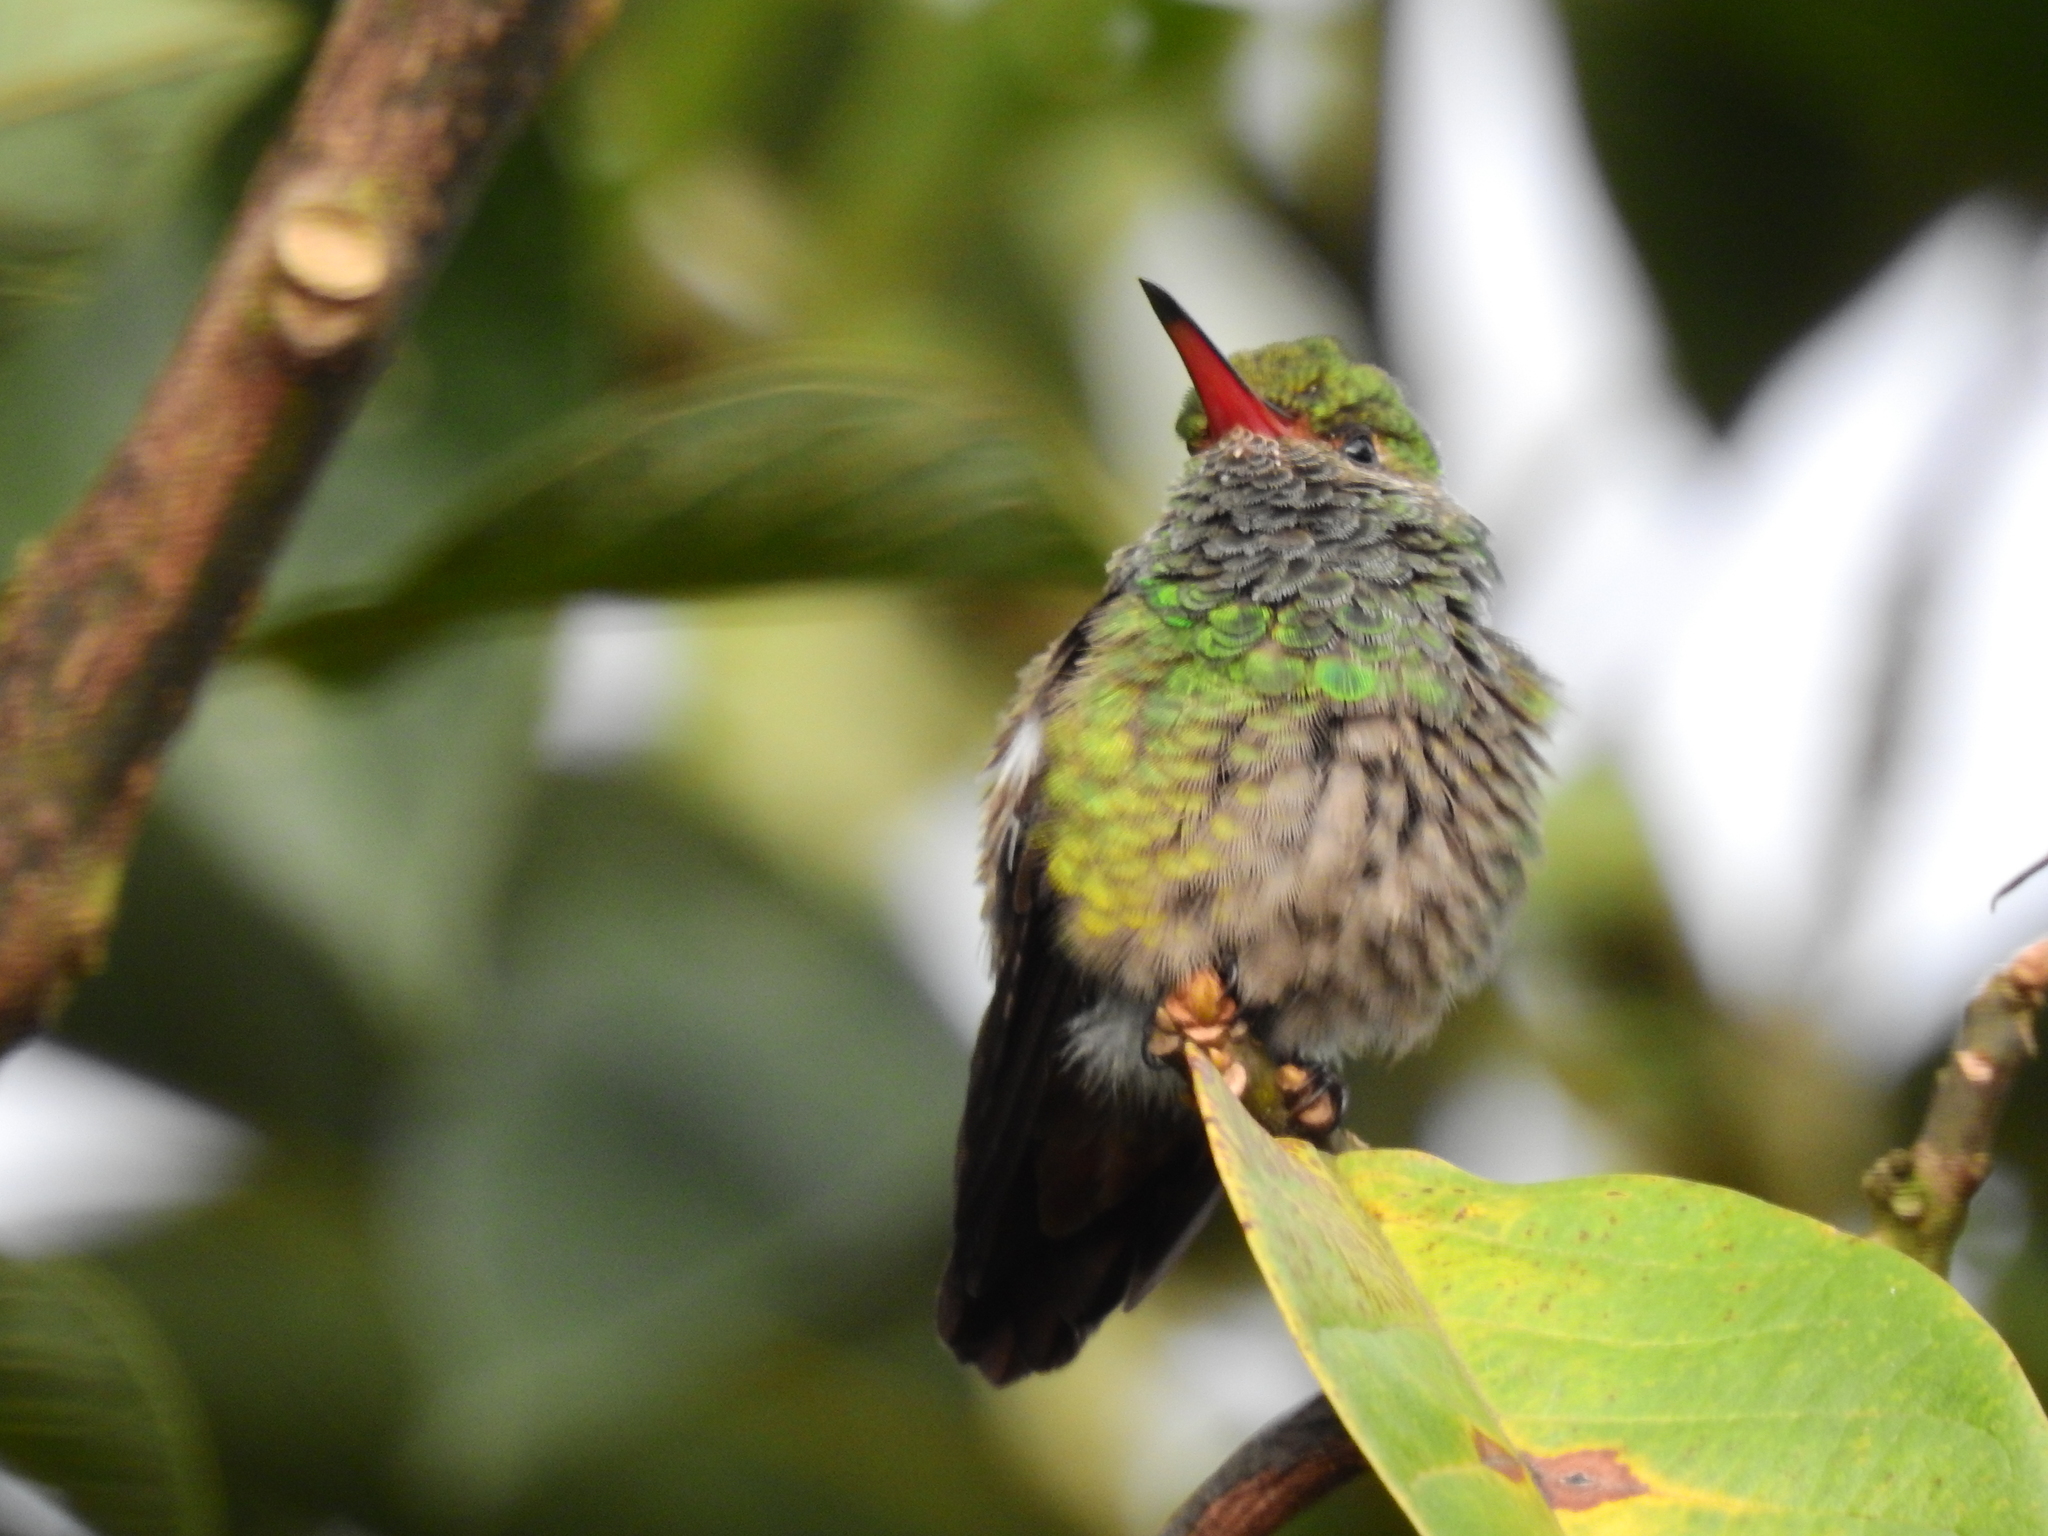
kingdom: Animalia
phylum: Chordata
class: Aves
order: Apodiformes
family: Trochilidae
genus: Amazilia
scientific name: Amazilia tzacatl
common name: Rufous-tailed hummingbird
